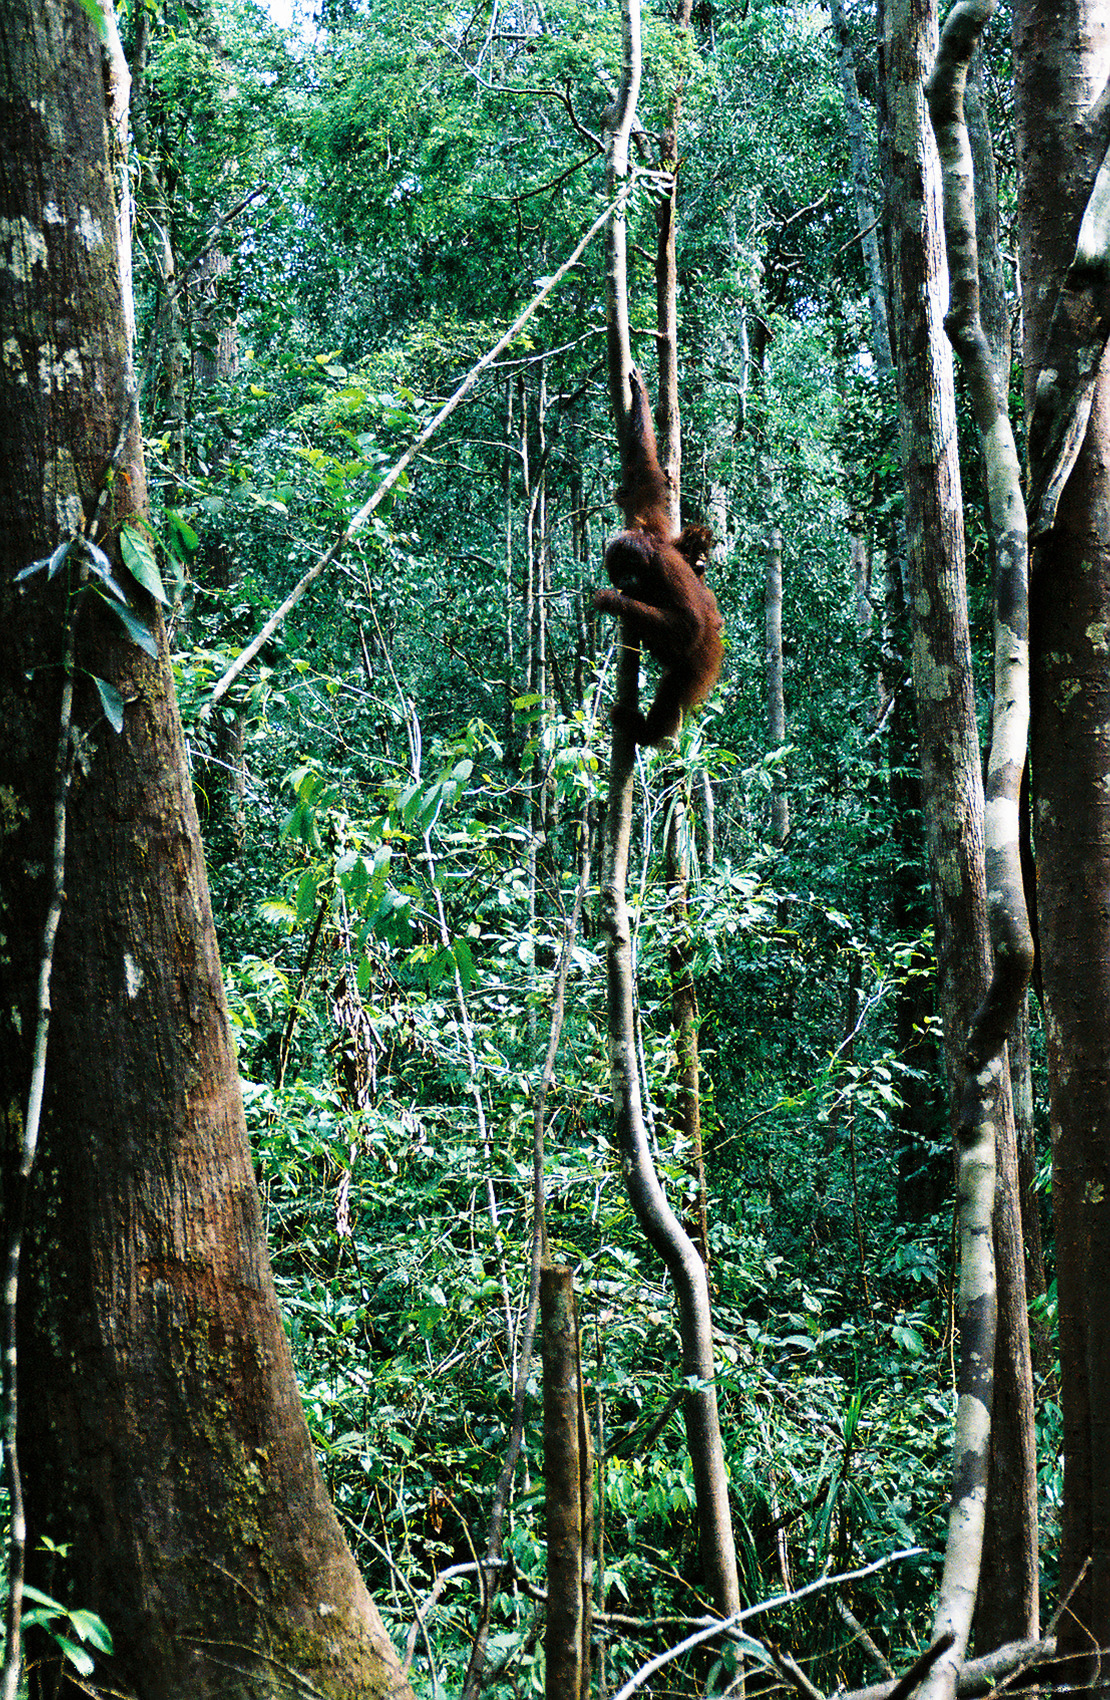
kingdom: Animalia
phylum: Chordata
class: Mammalia
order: Primates
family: Hominidae
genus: Pongo
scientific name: Pongo pygmaeus
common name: Bornean orangutan
